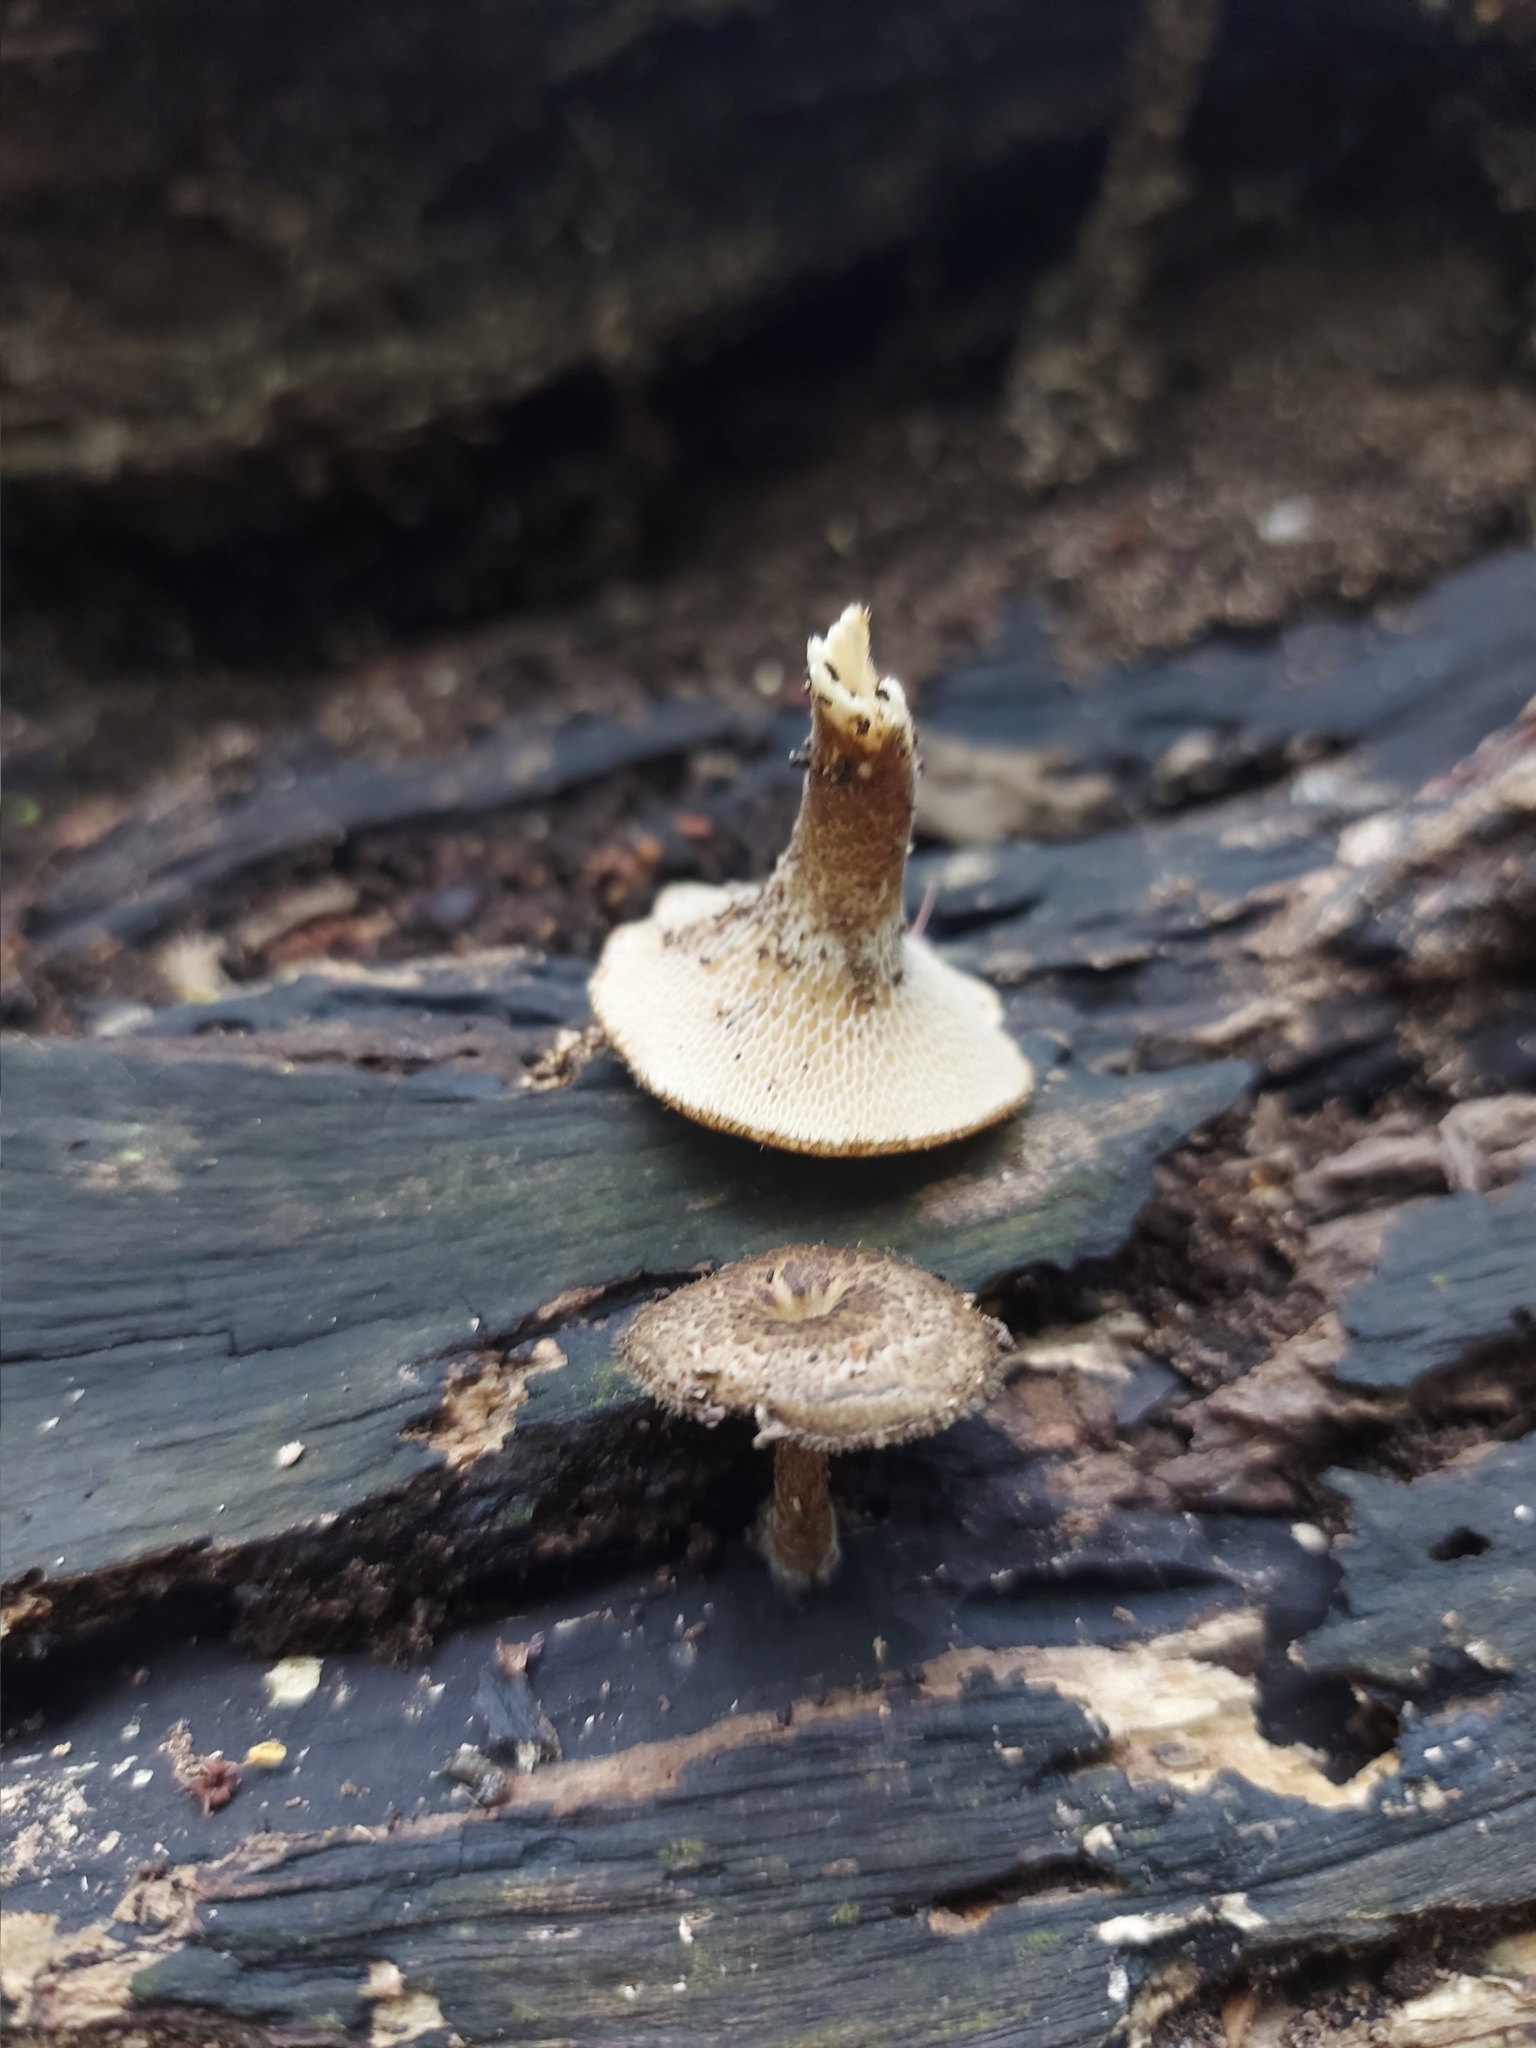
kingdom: Fungi
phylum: Basidiomycota
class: Agaricomycetes
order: Polyporales
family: Polyporaceae
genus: Lentinus
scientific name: Lentinus arcularius
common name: Spring polypore
